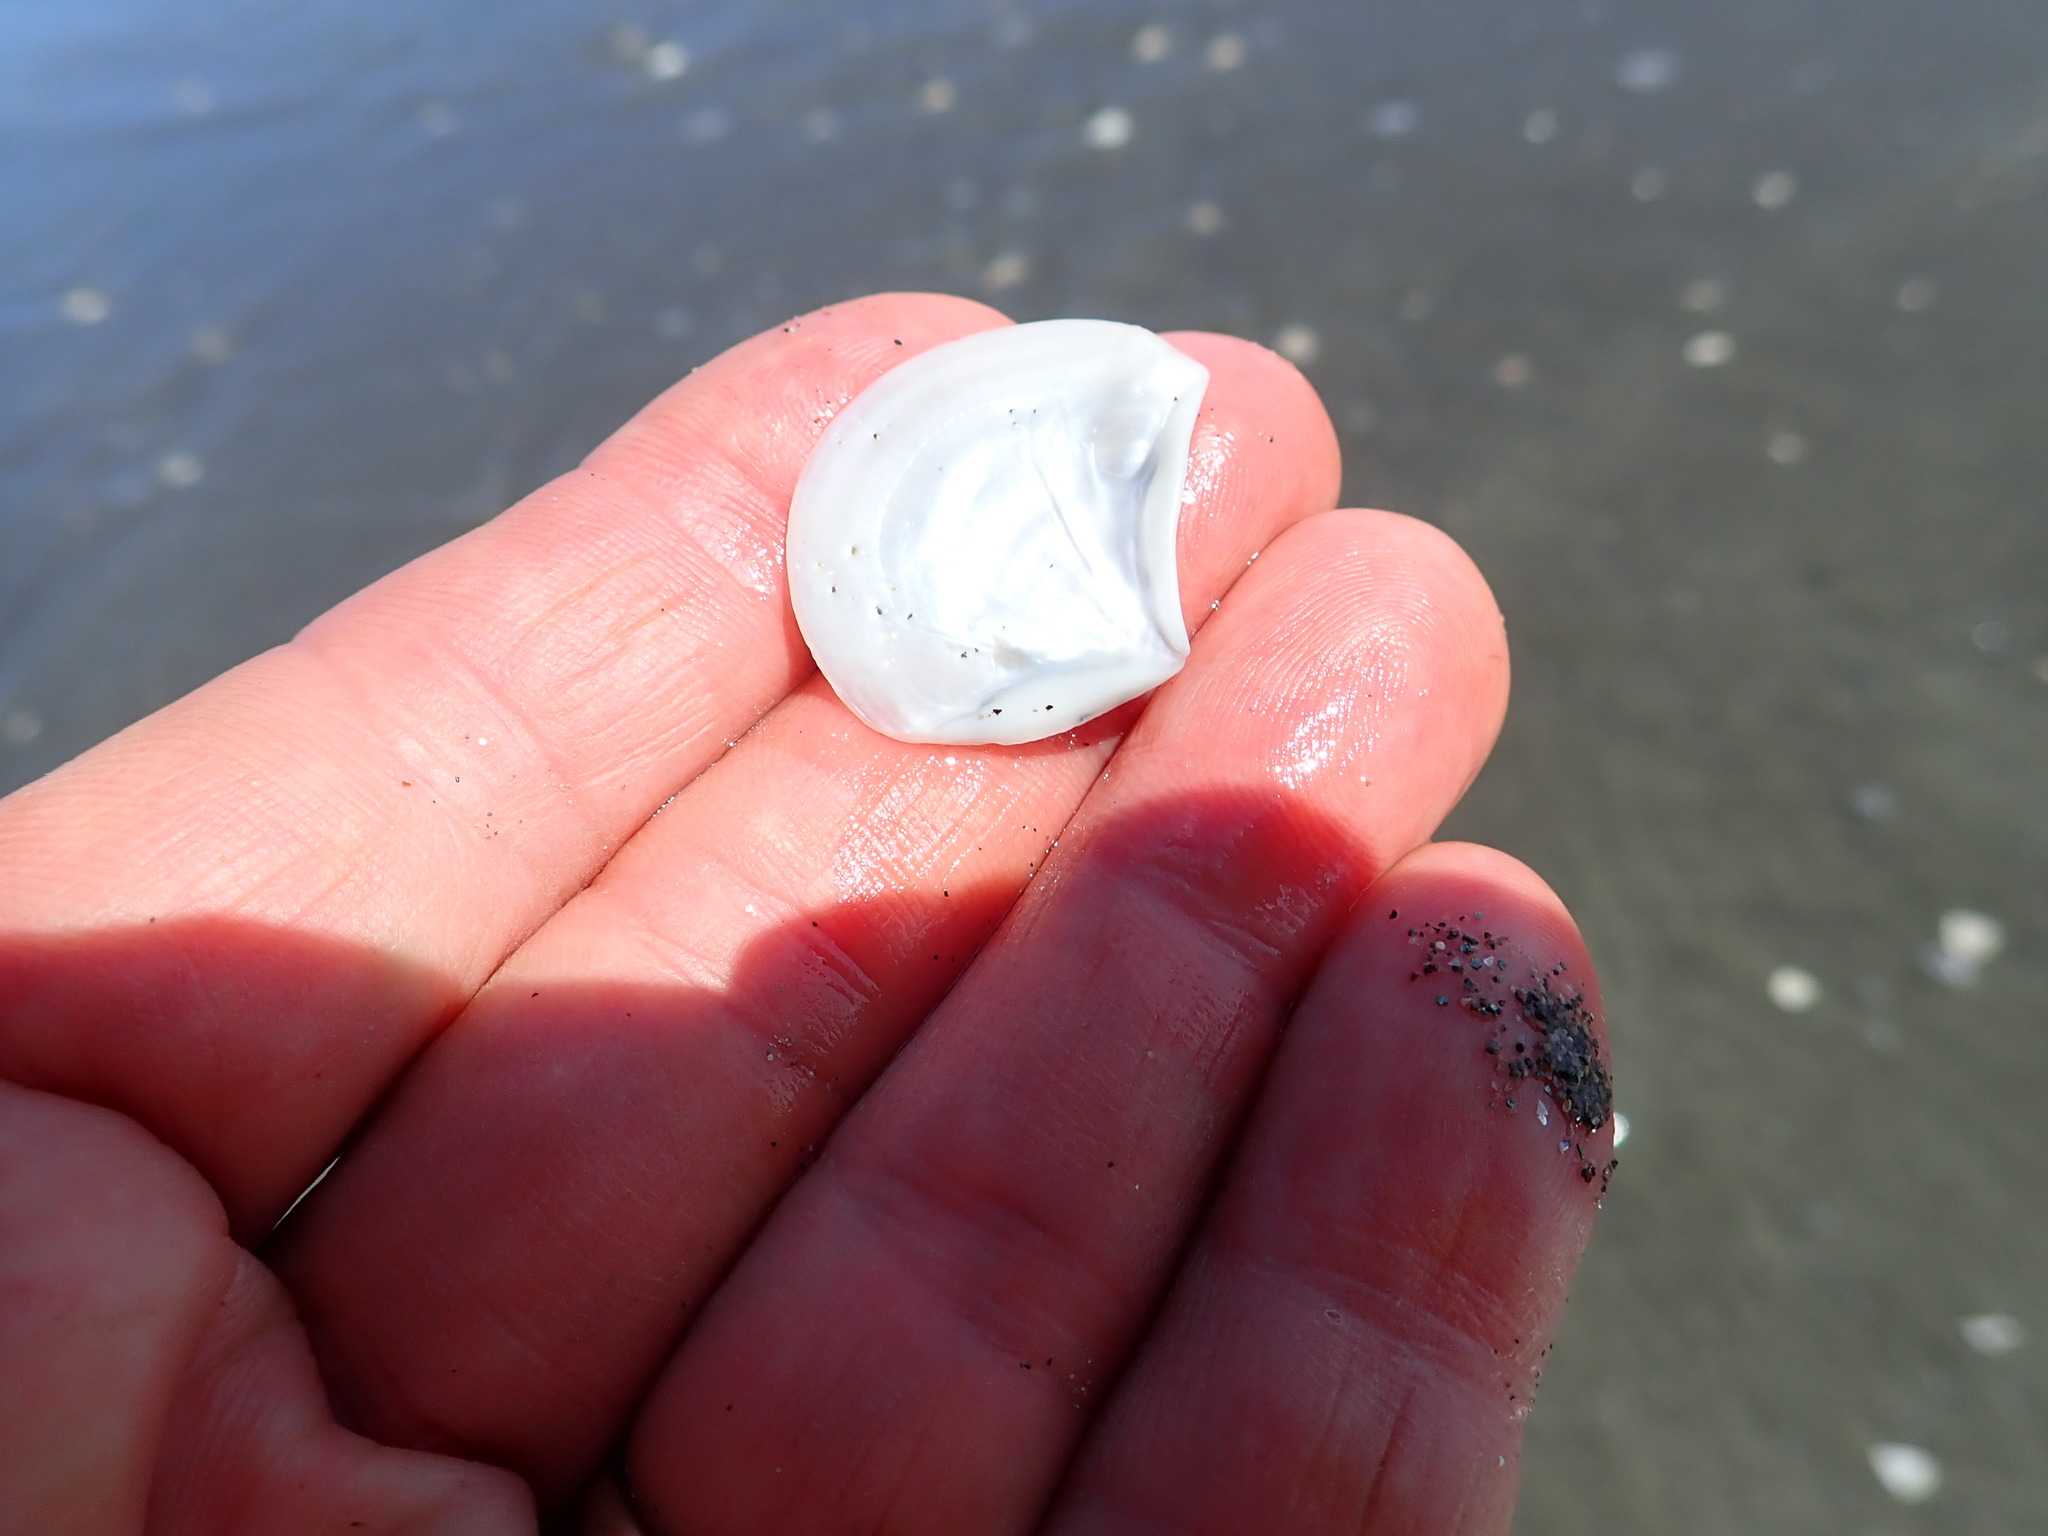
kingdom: Animalia
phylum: Mollusca
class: Bivalvia
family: Myochamidae
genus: Myadora
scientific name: Myadora striata
